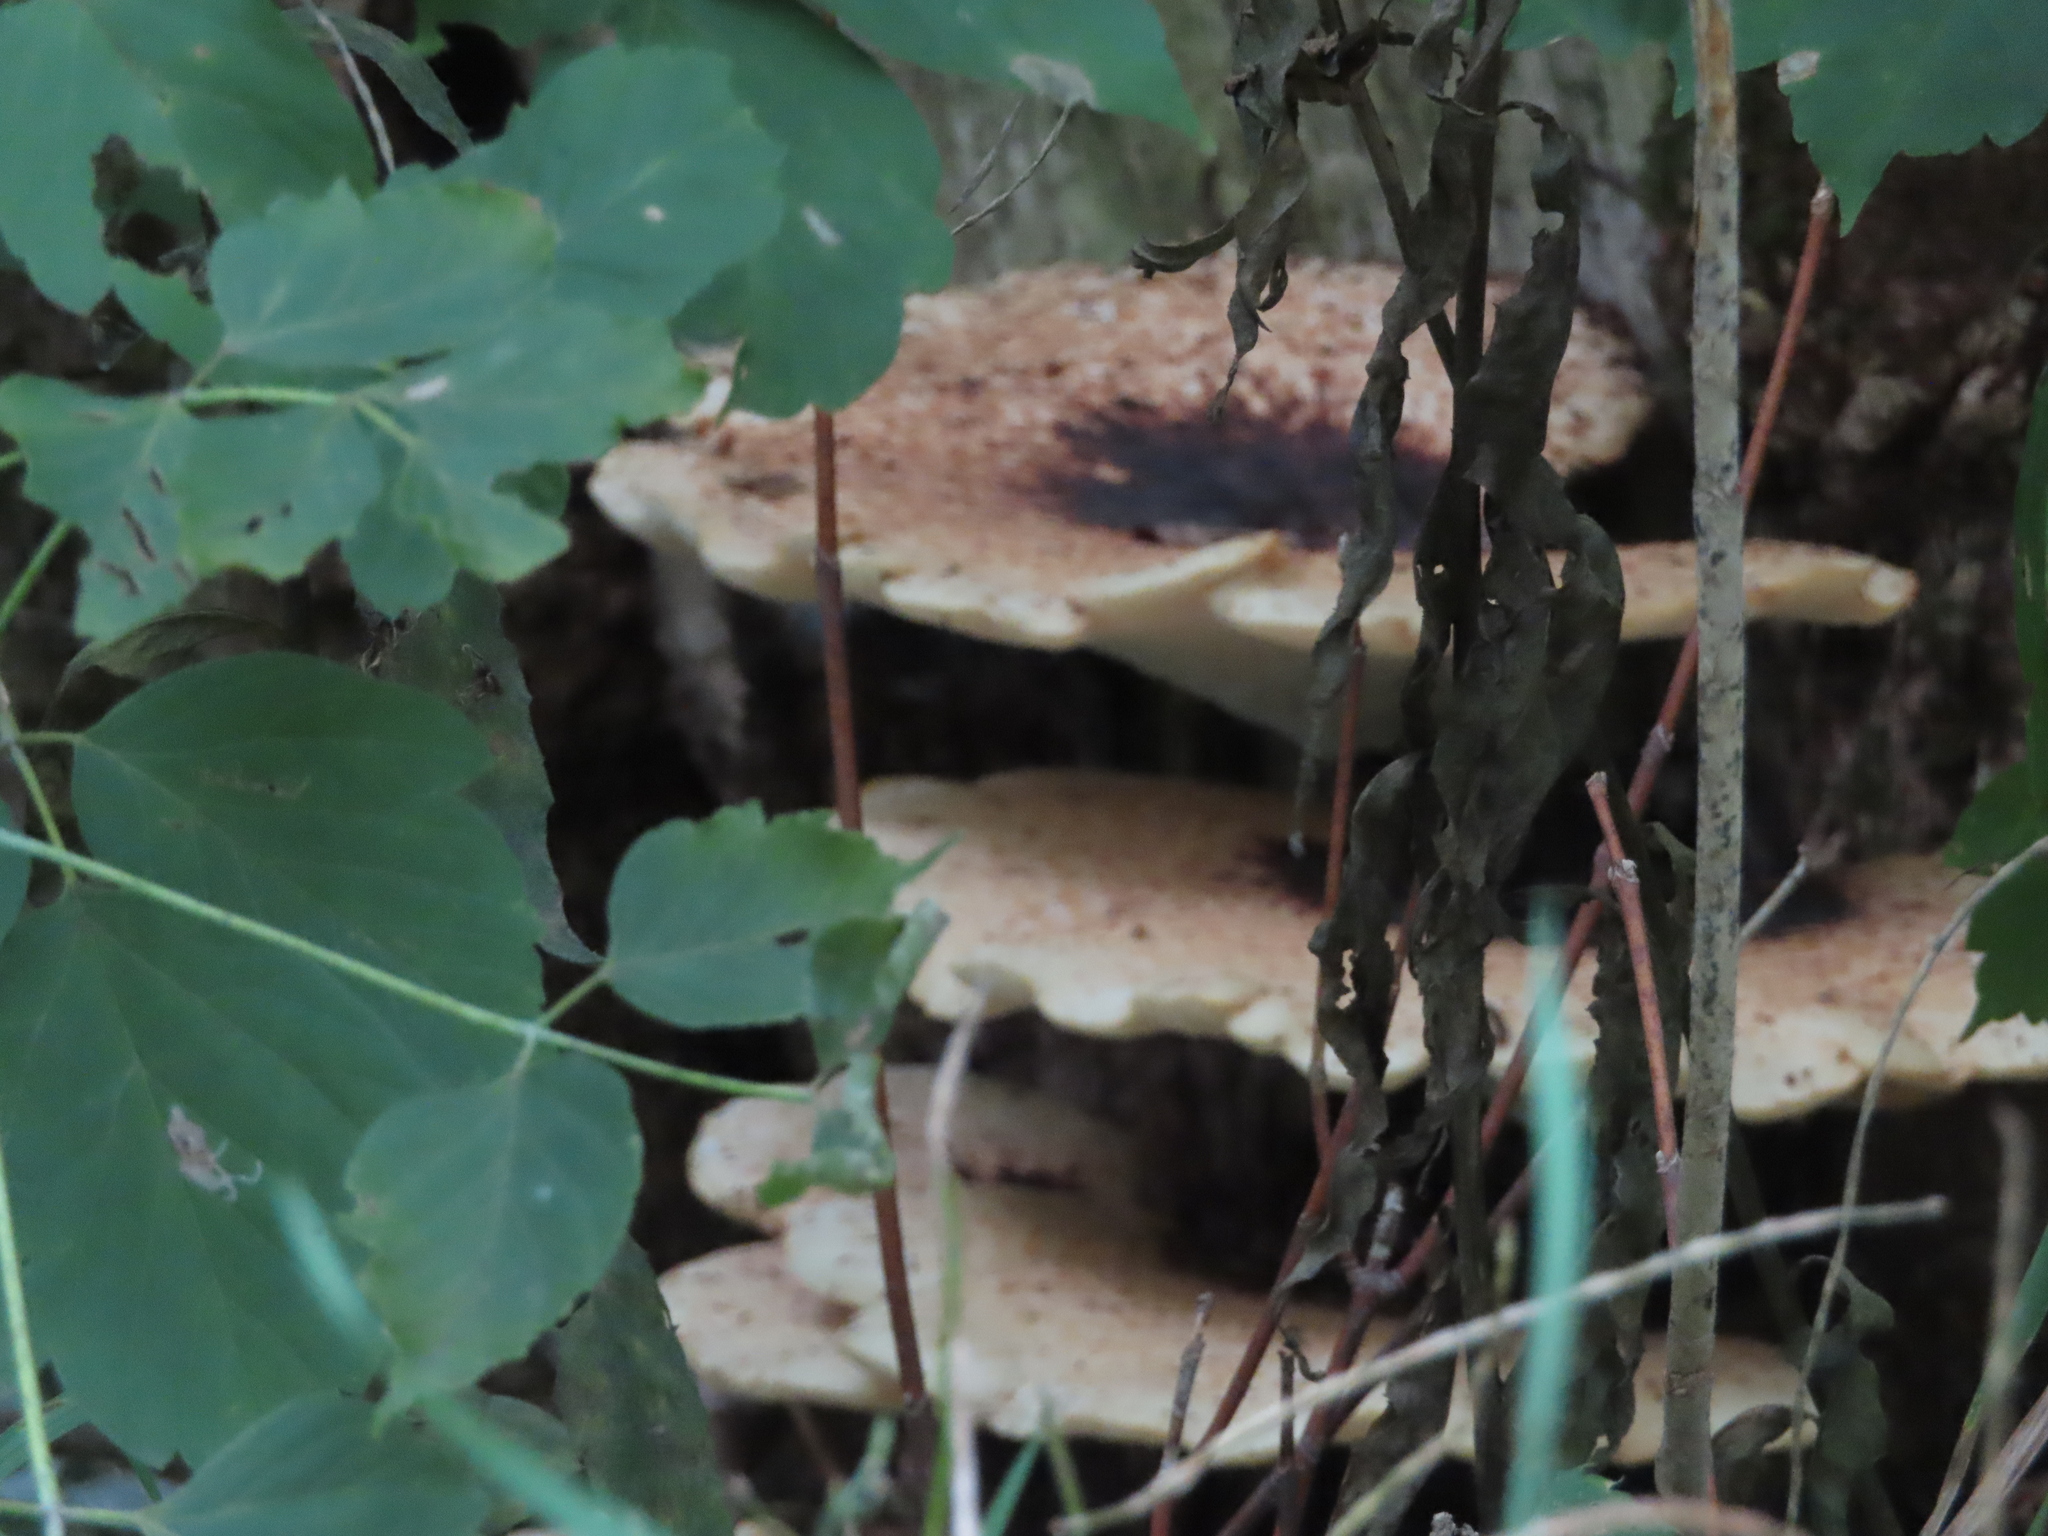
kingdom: Fungi
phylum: Basidiomycota
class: Agaricomycetes
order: Polyporales
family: Polyporaceae
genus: Cerioporus
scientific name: Cerioporus squamosus
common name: Dryad's saddle
